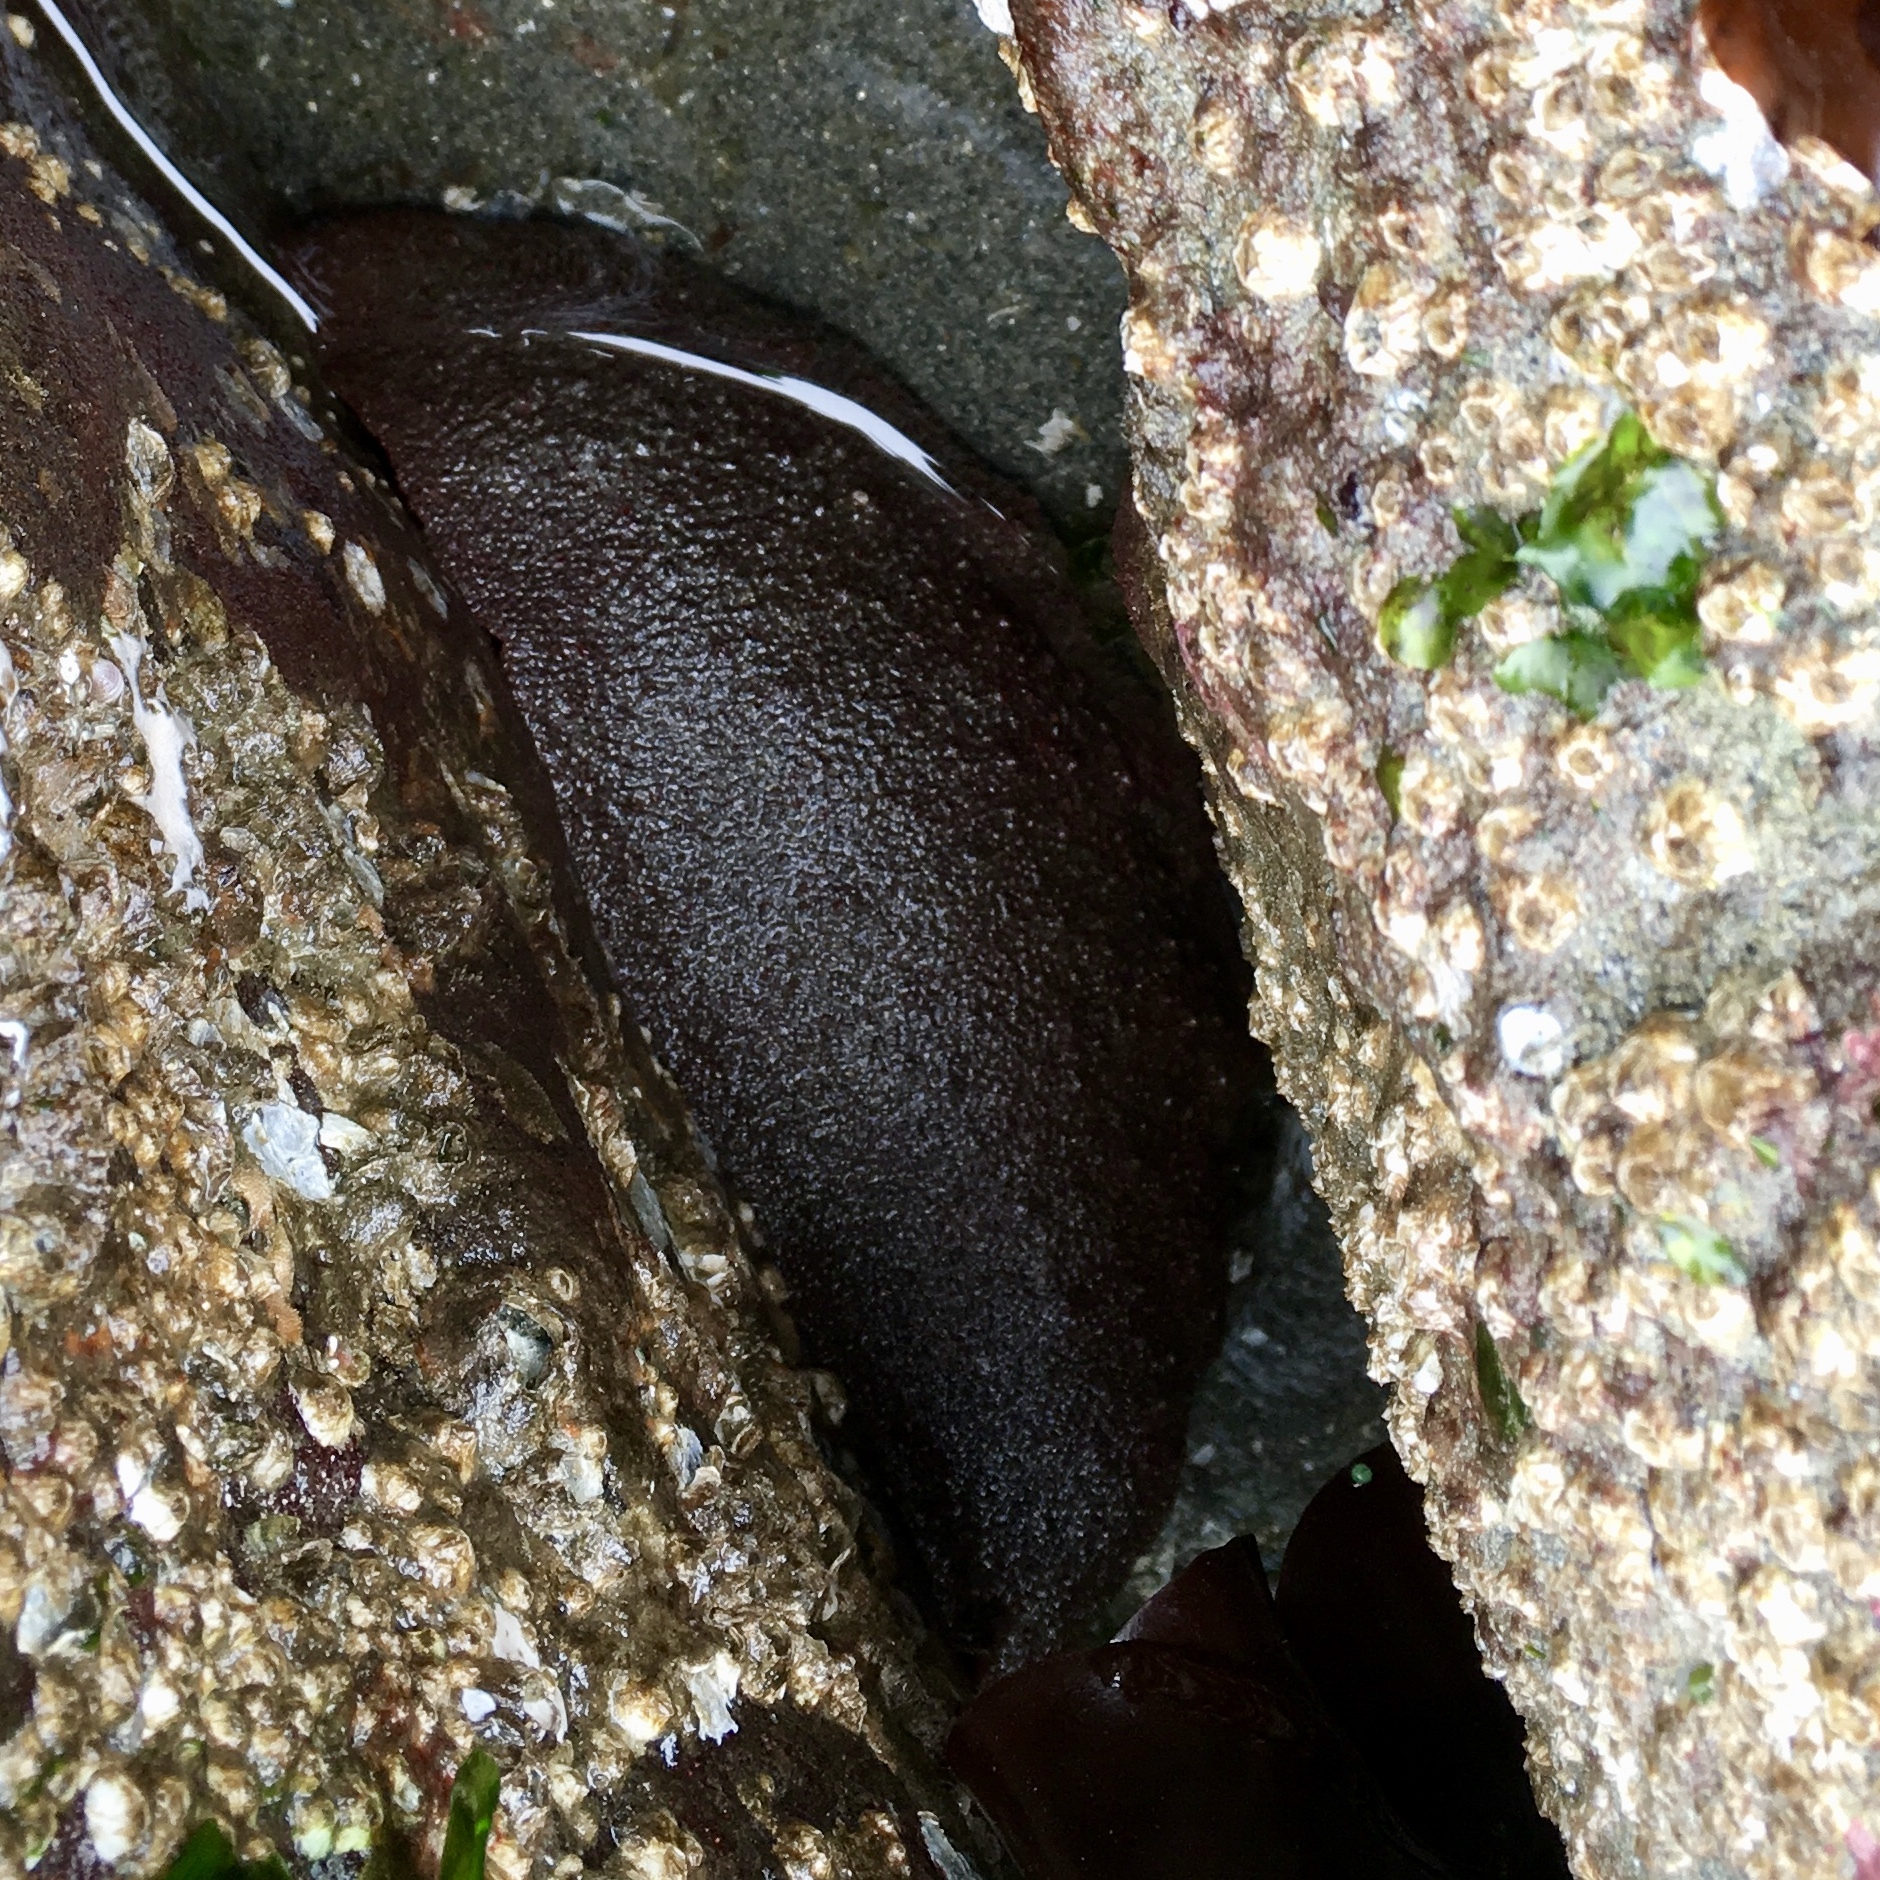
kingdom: Animalia
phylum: Mollusca
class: Polyplacophora
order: Chitonida
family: Acanthochitonidae
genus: Cryptochiton
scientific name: Cryptochiton stelleri
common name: Giant pacific chiton
